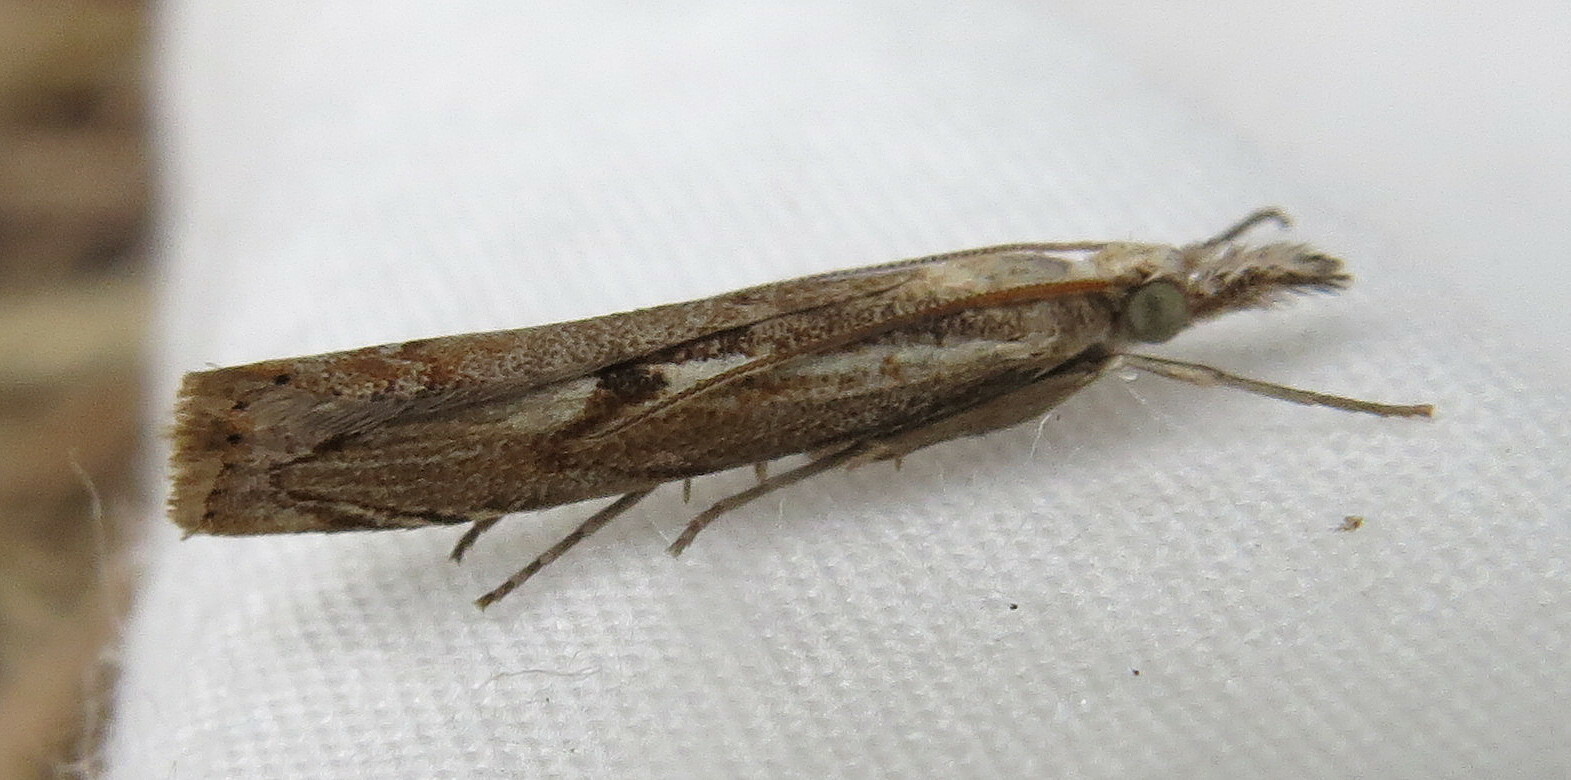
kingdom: Animalia
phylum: Arthropoda
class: Insecta
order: Lepidoptera
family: Crambidae
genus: Agriphila
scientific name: Agriphila geniculea
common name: Elbow-stripe grass-veneer
